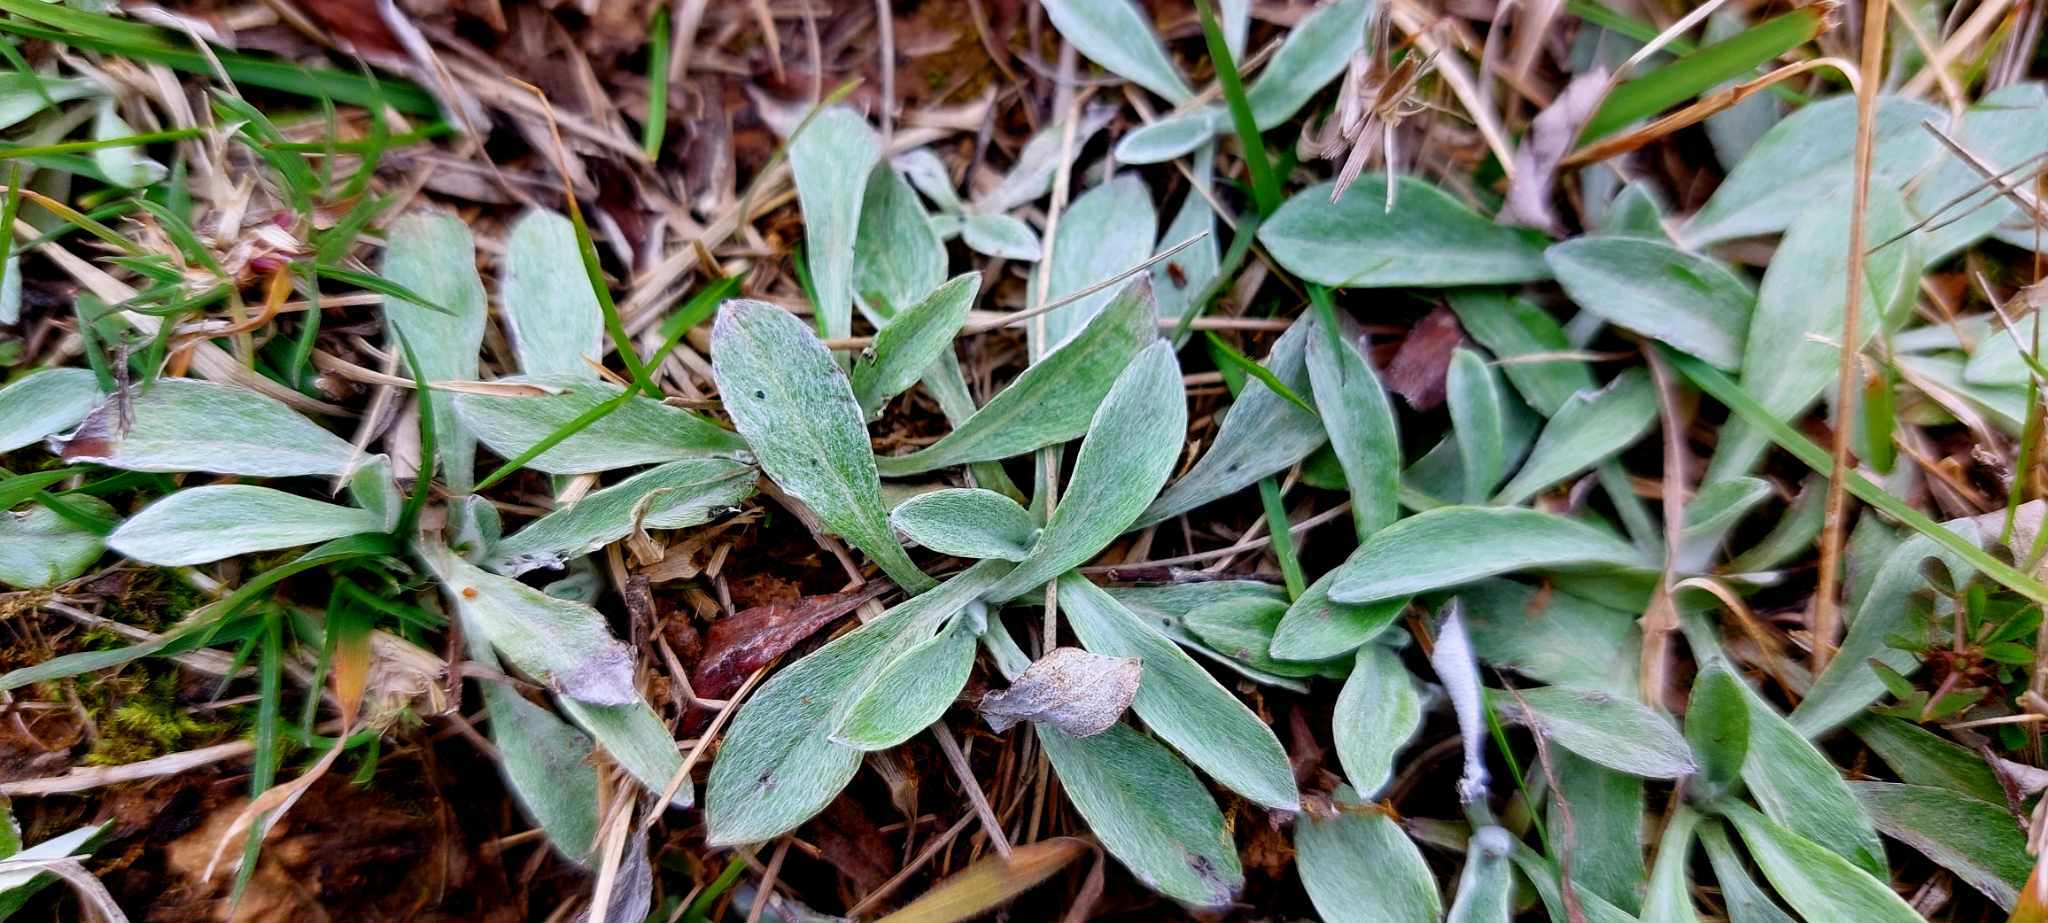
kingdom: Plantae
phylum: Tracheophyta
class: Magnoliopsida
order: Asterales
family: Asteraceae
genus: Euchiton
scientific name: Euchiton audax
